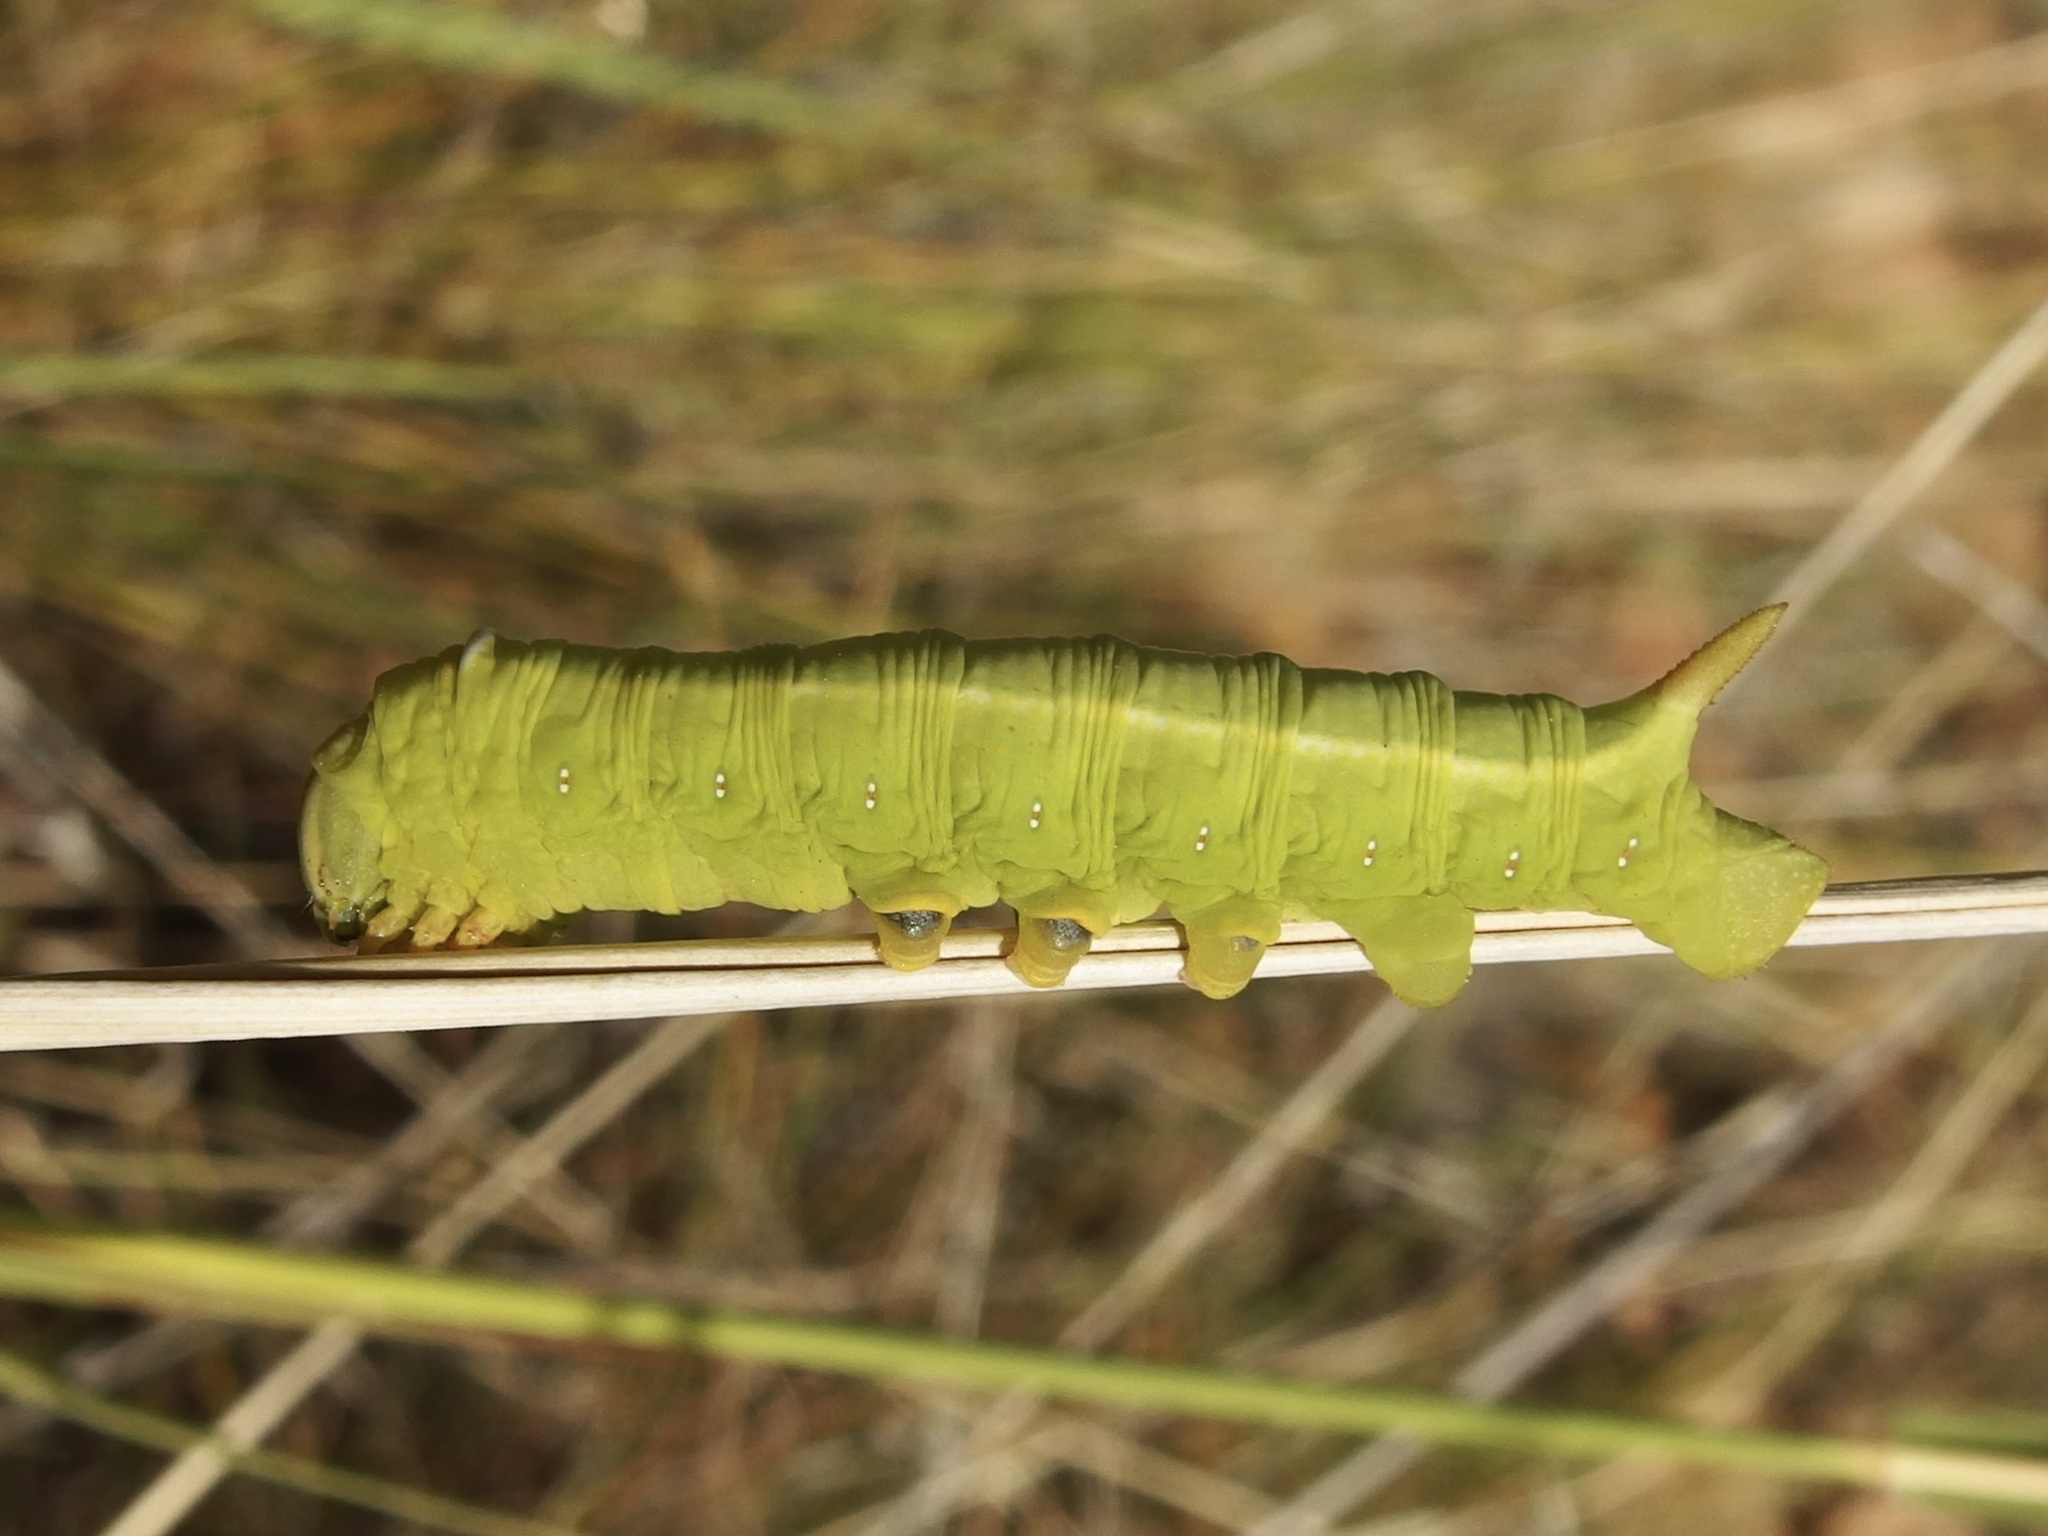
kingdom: Animalia
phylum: Arthropoda
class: Insecta
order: Lepidoptera
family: Sphingidae
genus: Erinnyis
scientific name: Erinnyis ello
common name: Ello sphinx
